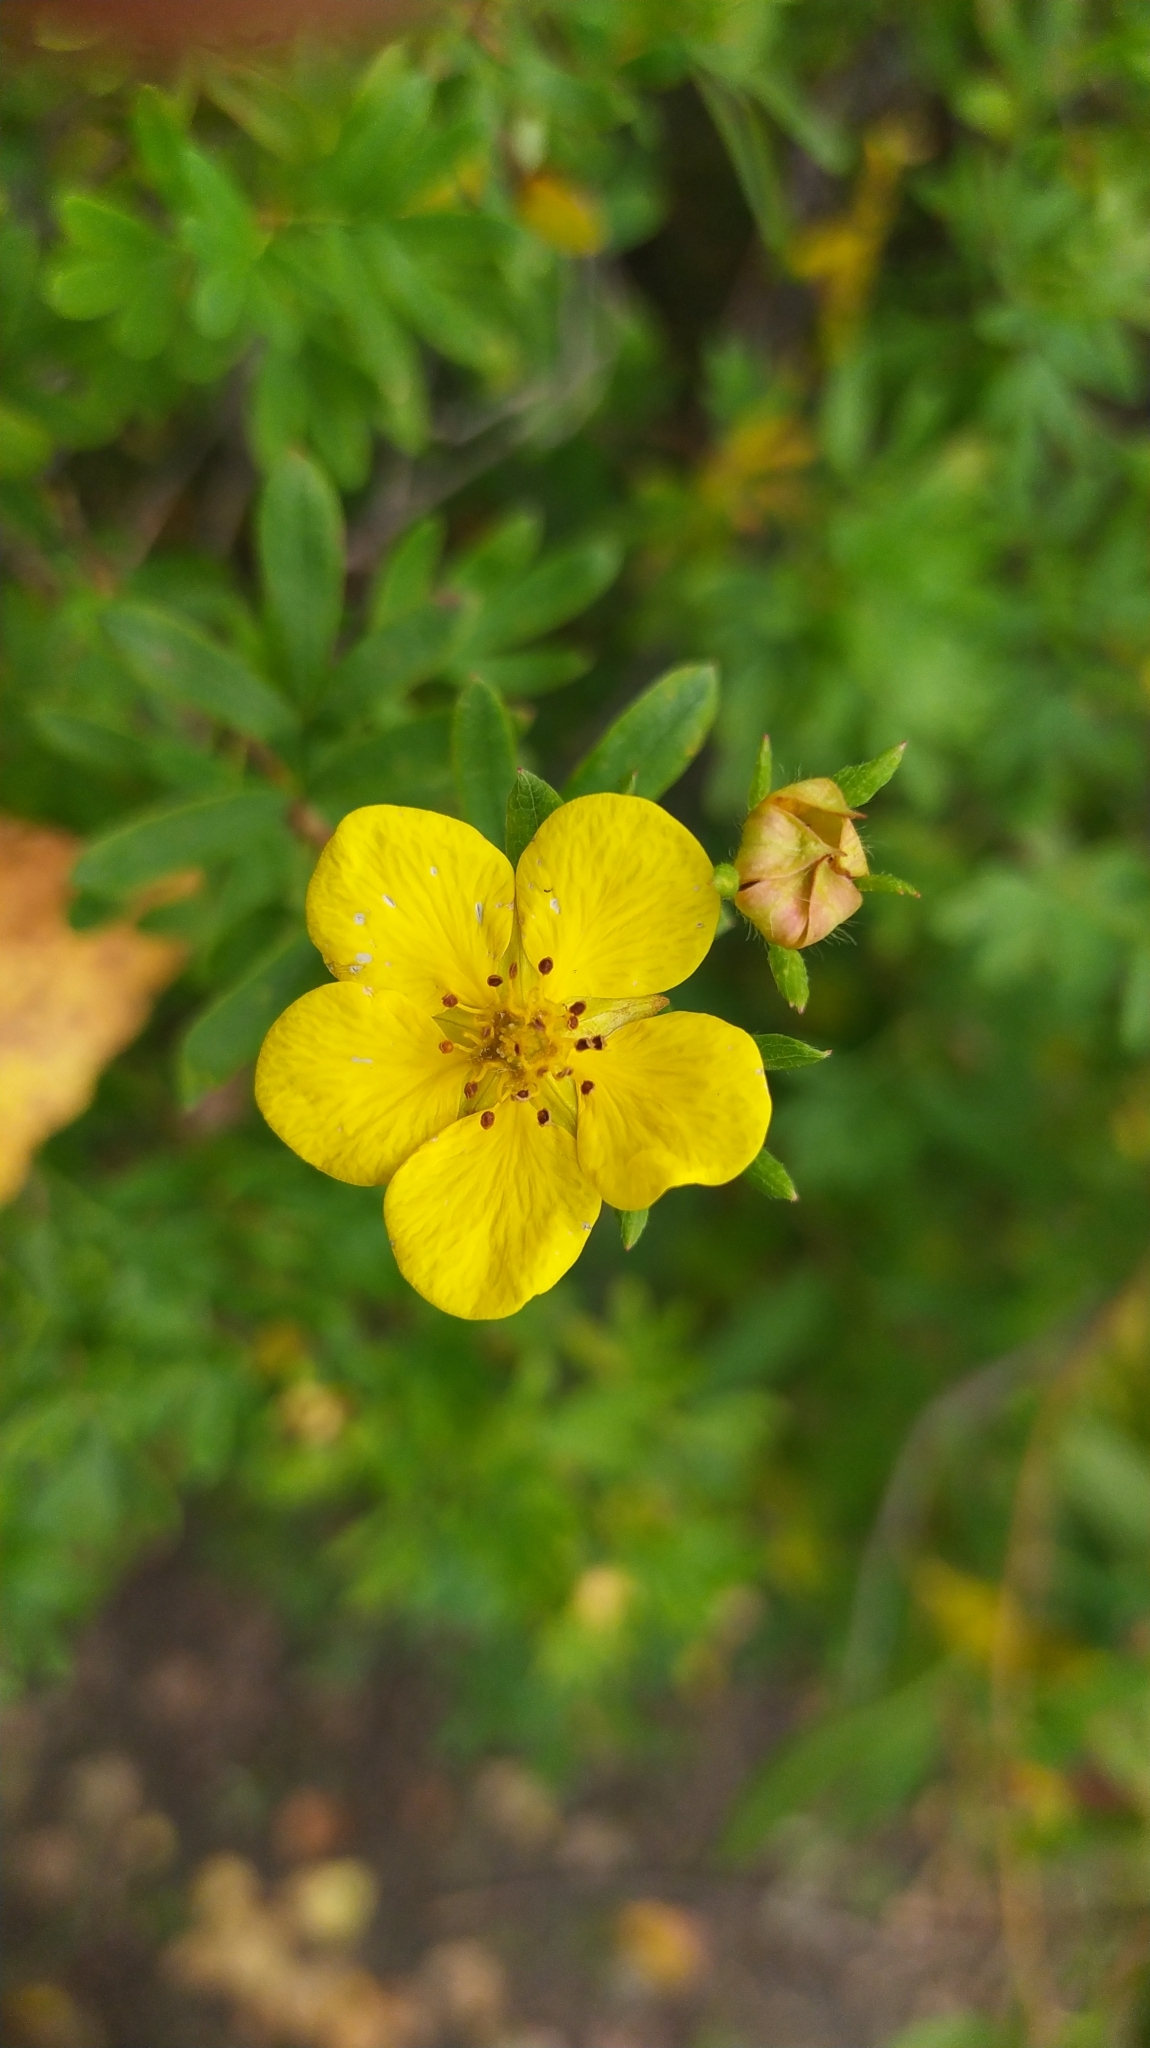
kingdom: Plantae
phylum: Tracheophyta
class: Magnoliopsida
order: Rosales
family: Rosaceae
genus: Dasiphora
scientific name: Dasiphora fruticosa
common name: Shrubby cinquefoil
